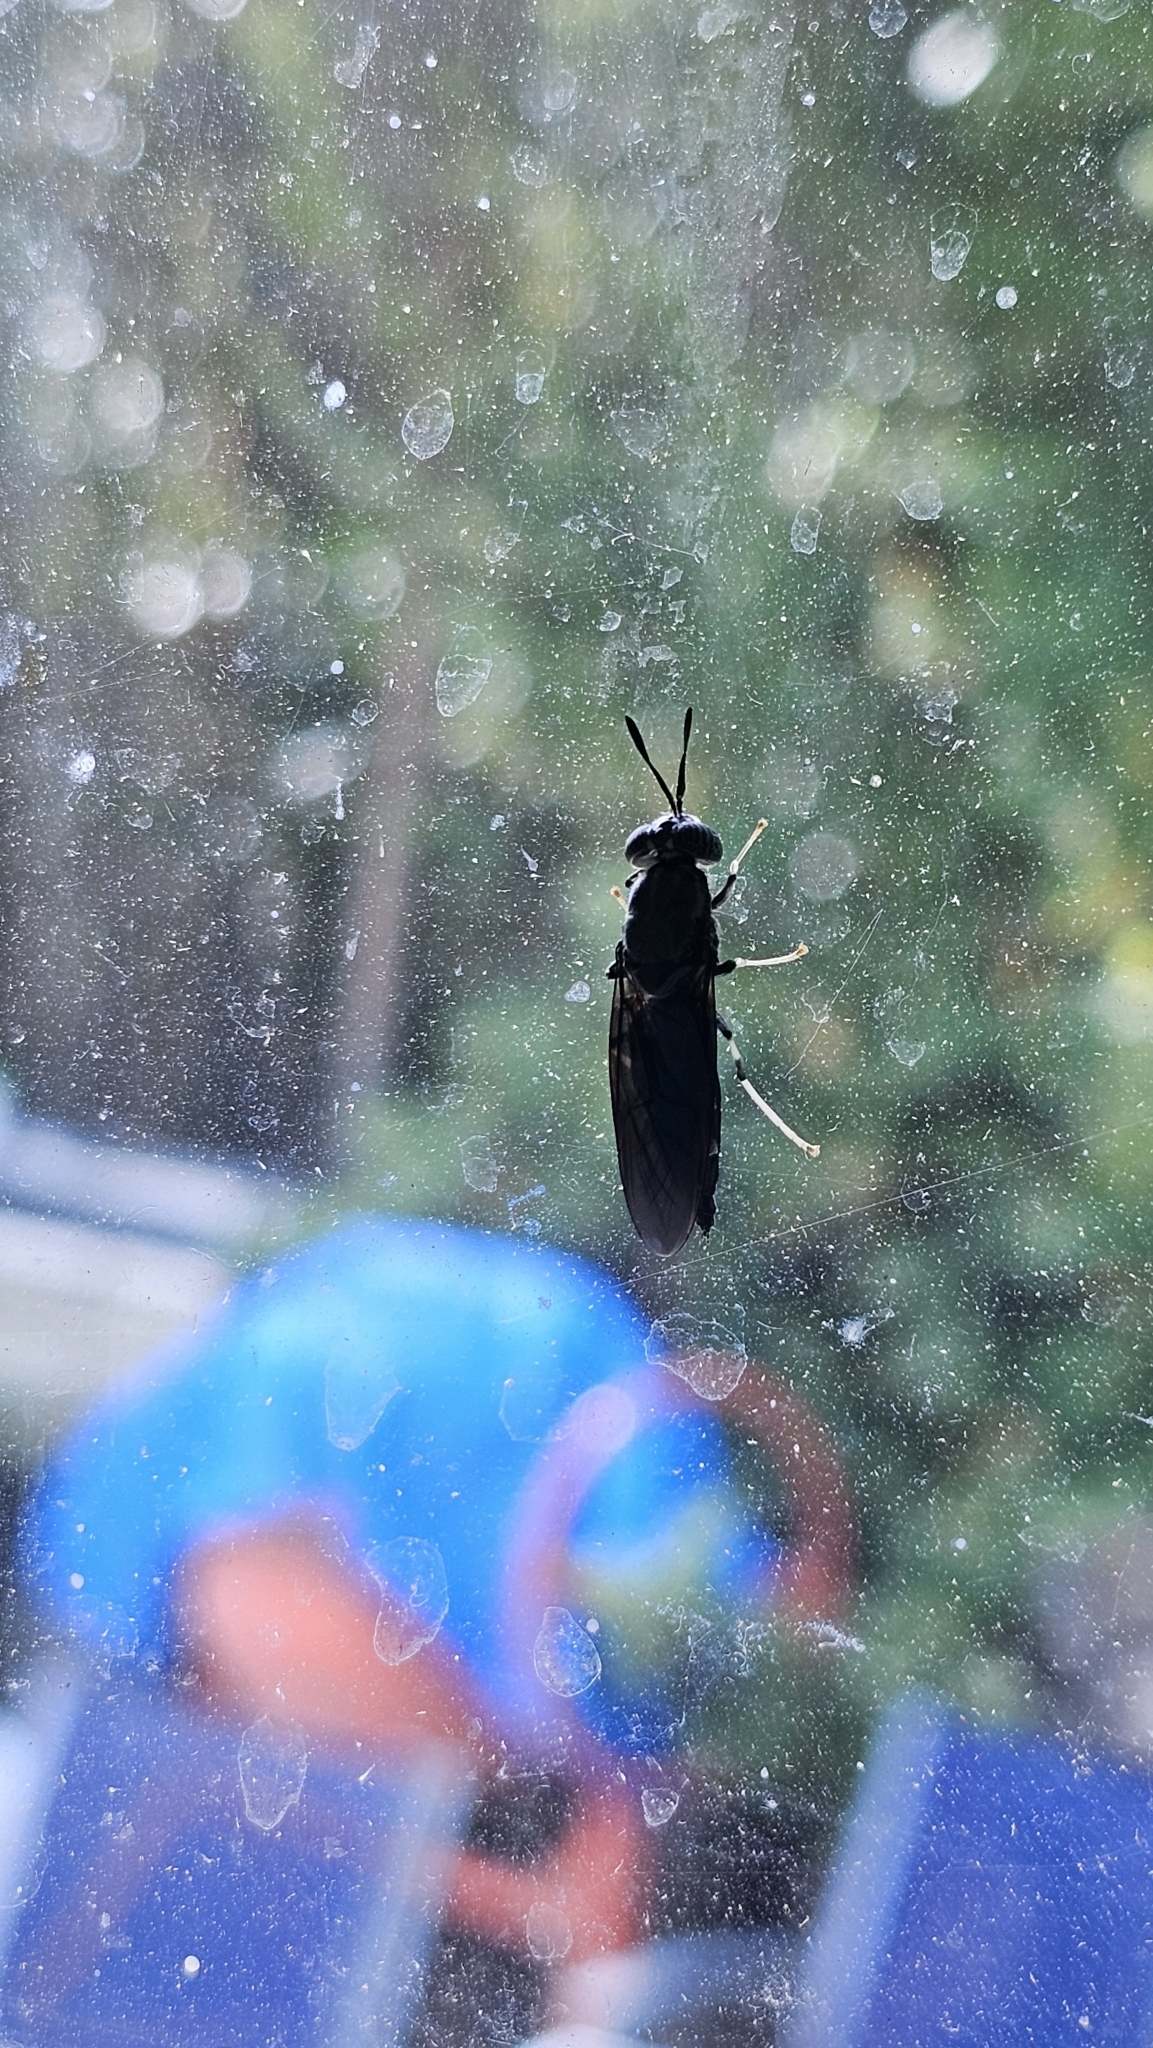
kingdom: Animalia
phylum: Arthropoda
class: Insecta
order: Diptera
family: Stratiomyidae
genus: Hermetia
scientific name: Hermetia illucens
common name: Black soldier fly
